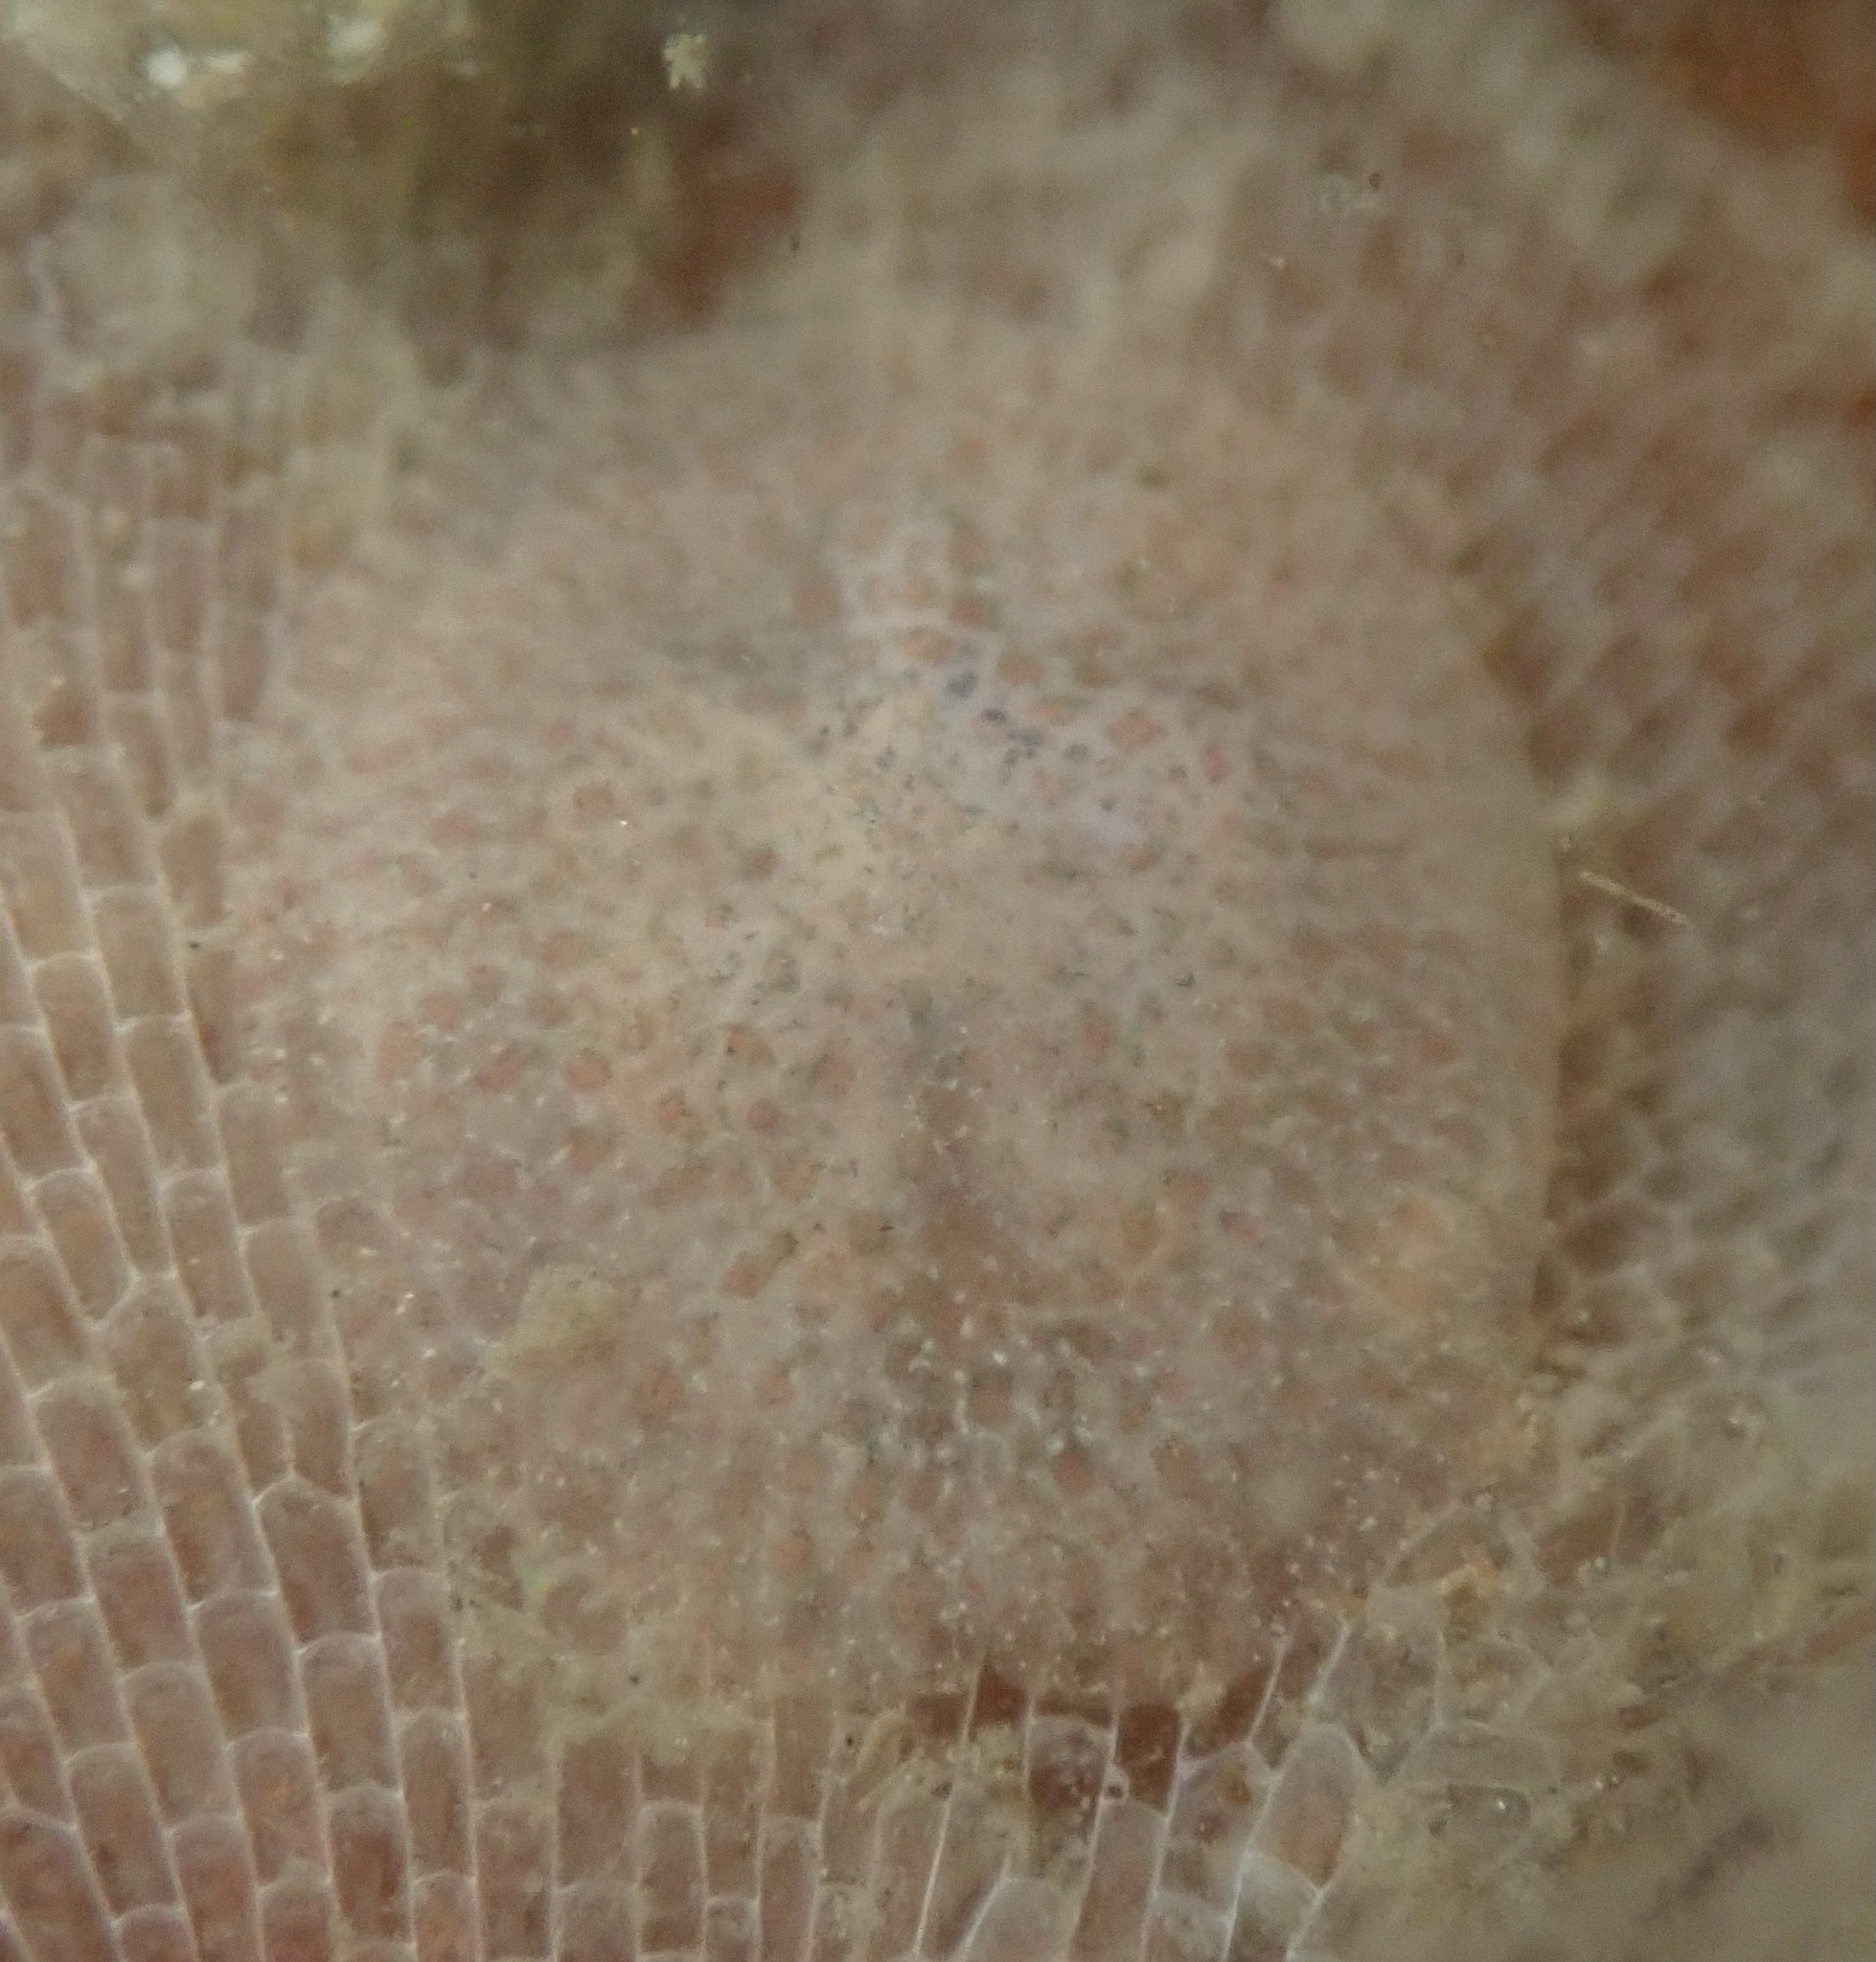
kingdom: Animalia
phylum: Mollusca
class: Gastropoda
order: Nudibranchia
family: Corambidae
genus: Corambe
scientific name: Corambe pacifica
